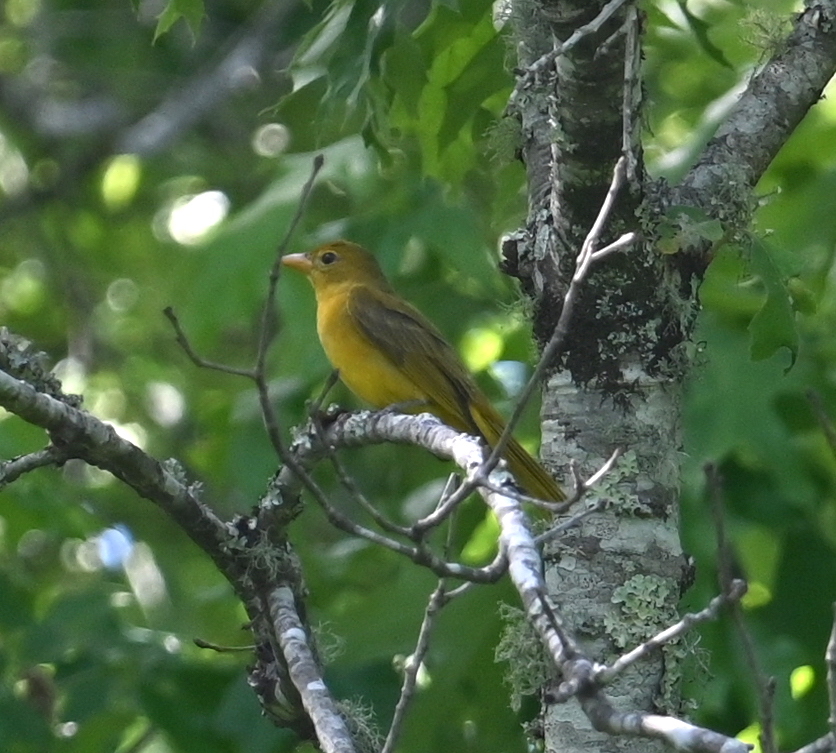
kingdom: Animalia
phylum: Chordata
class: Aves
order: Passeriformes
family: Cardinalidae
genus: Piranga
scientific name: Piranga rubra
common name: Summer tanager
